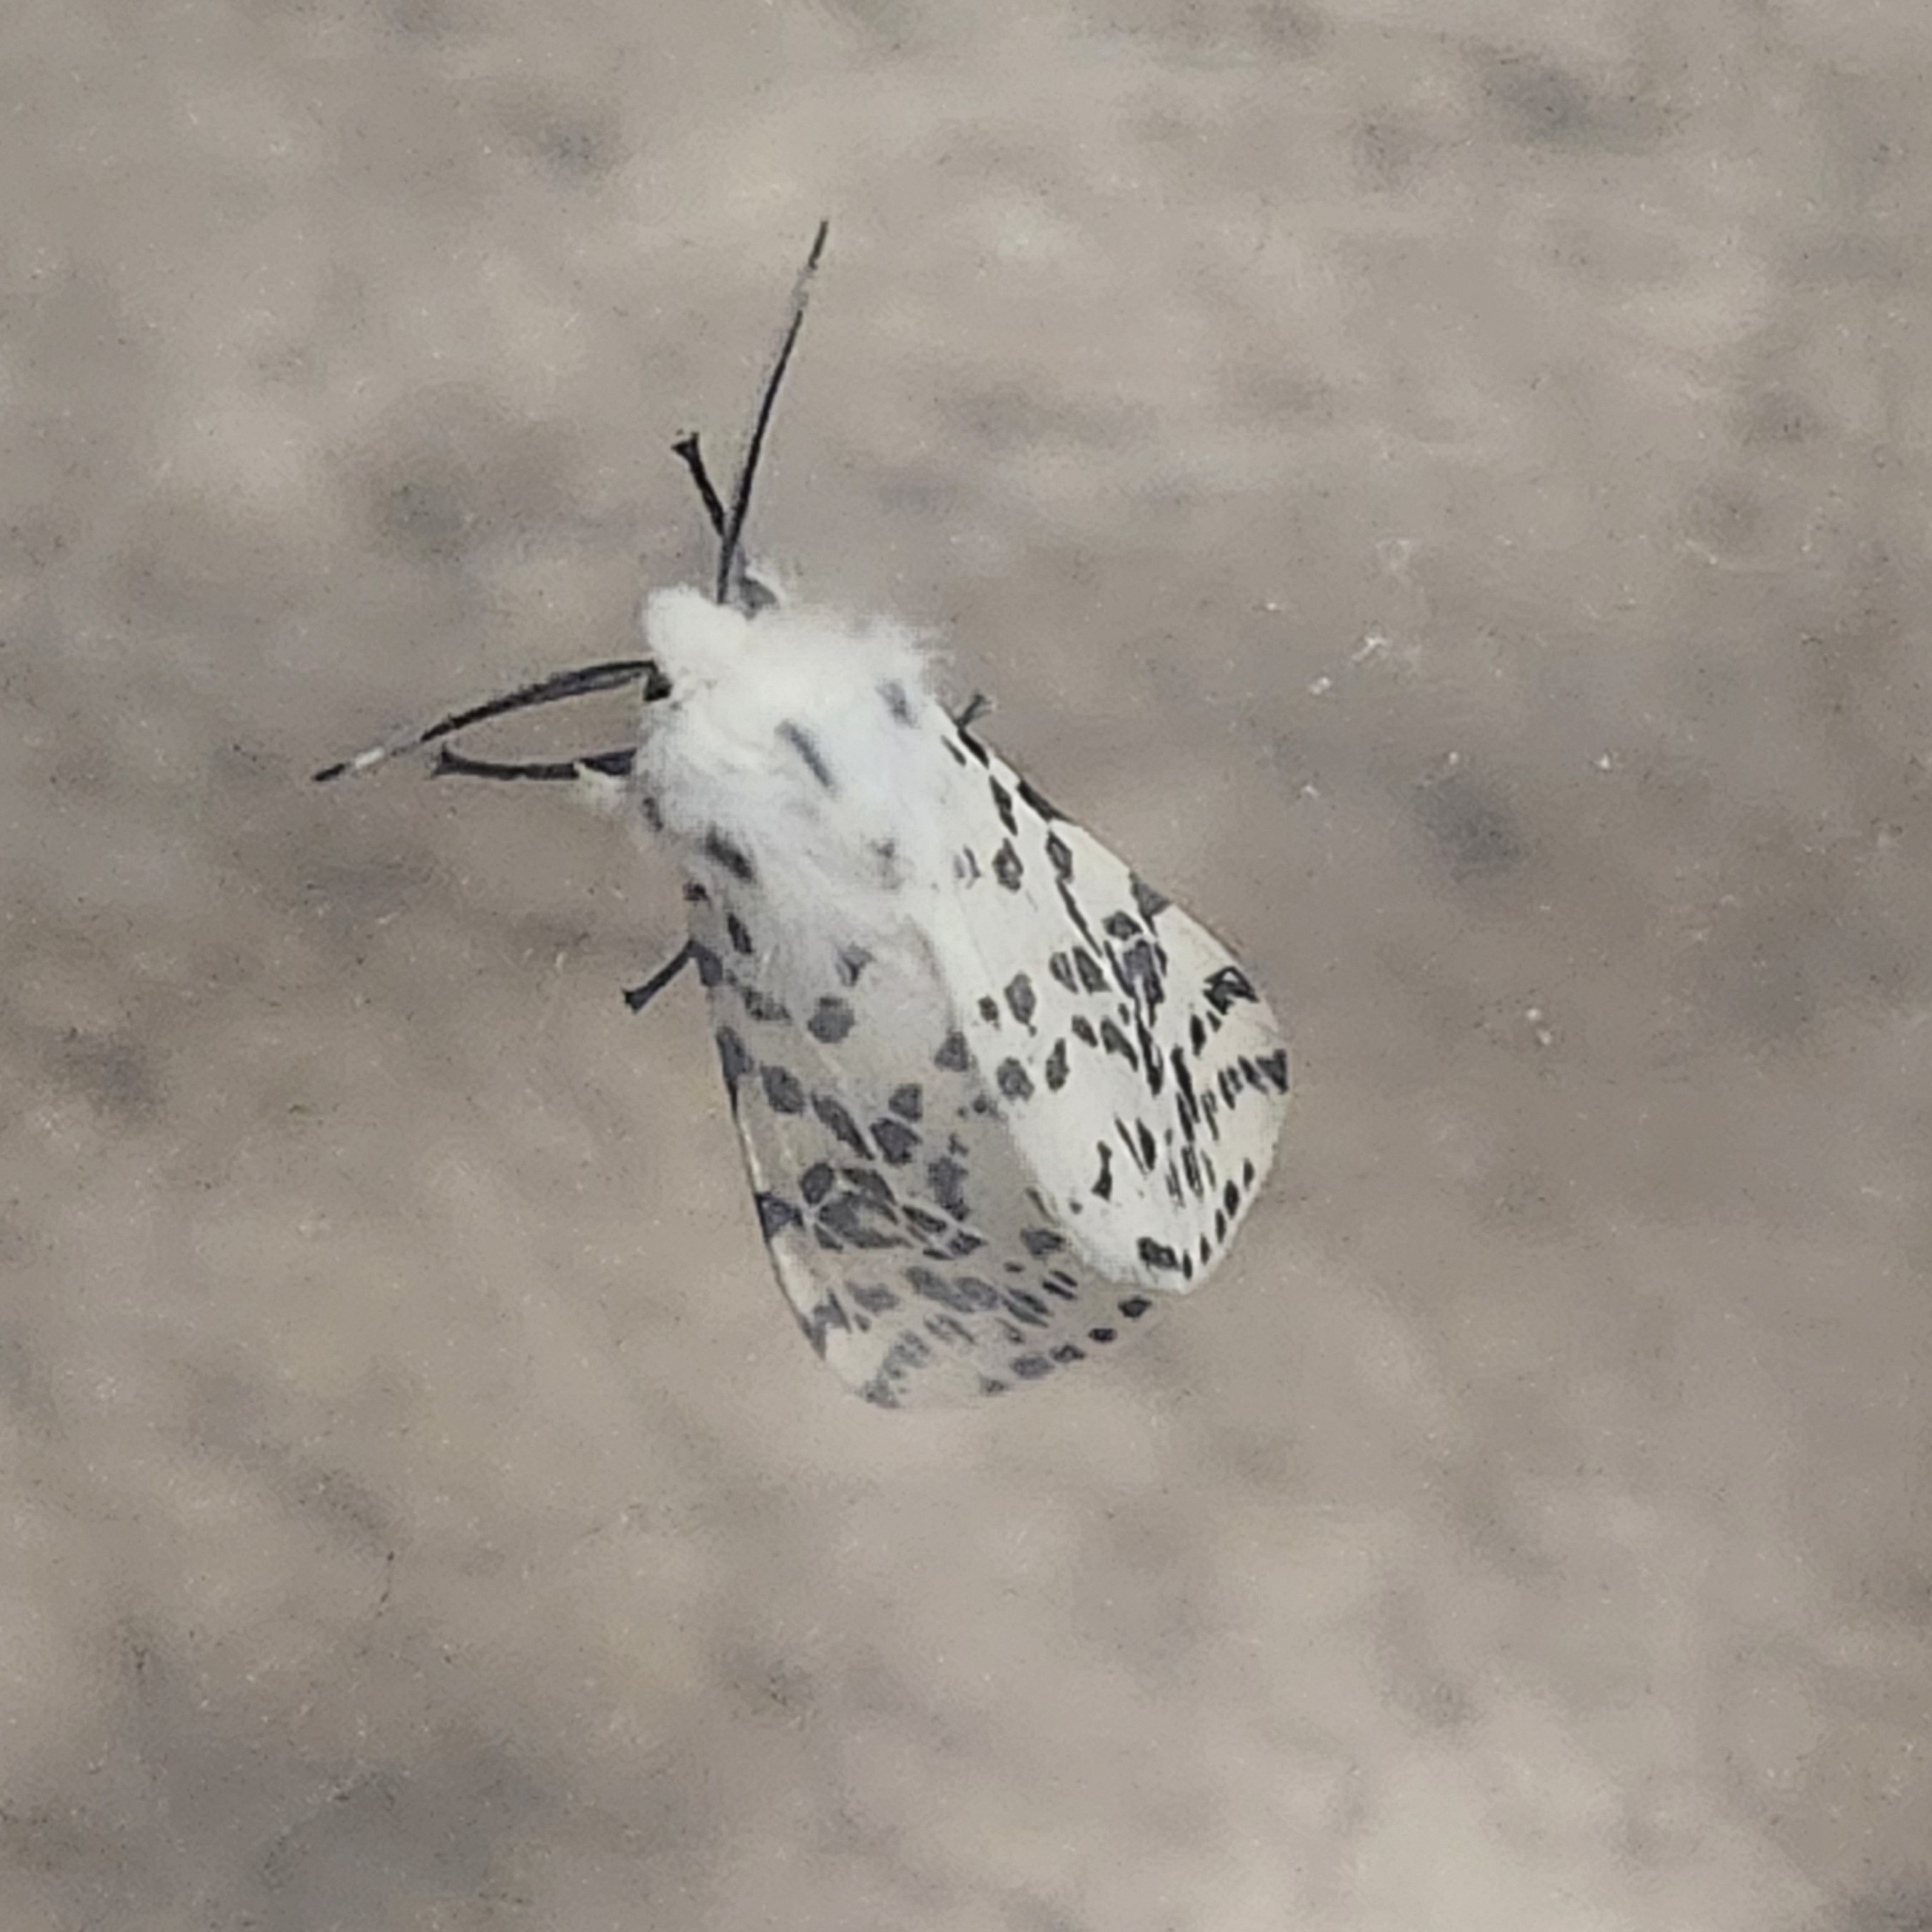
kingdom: Animalia
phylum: Arthropoda
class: Insecta
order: Lepidoptera
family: Erebidae
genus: Hyphantria
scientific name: Hyphantria cunea
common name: American white moth
